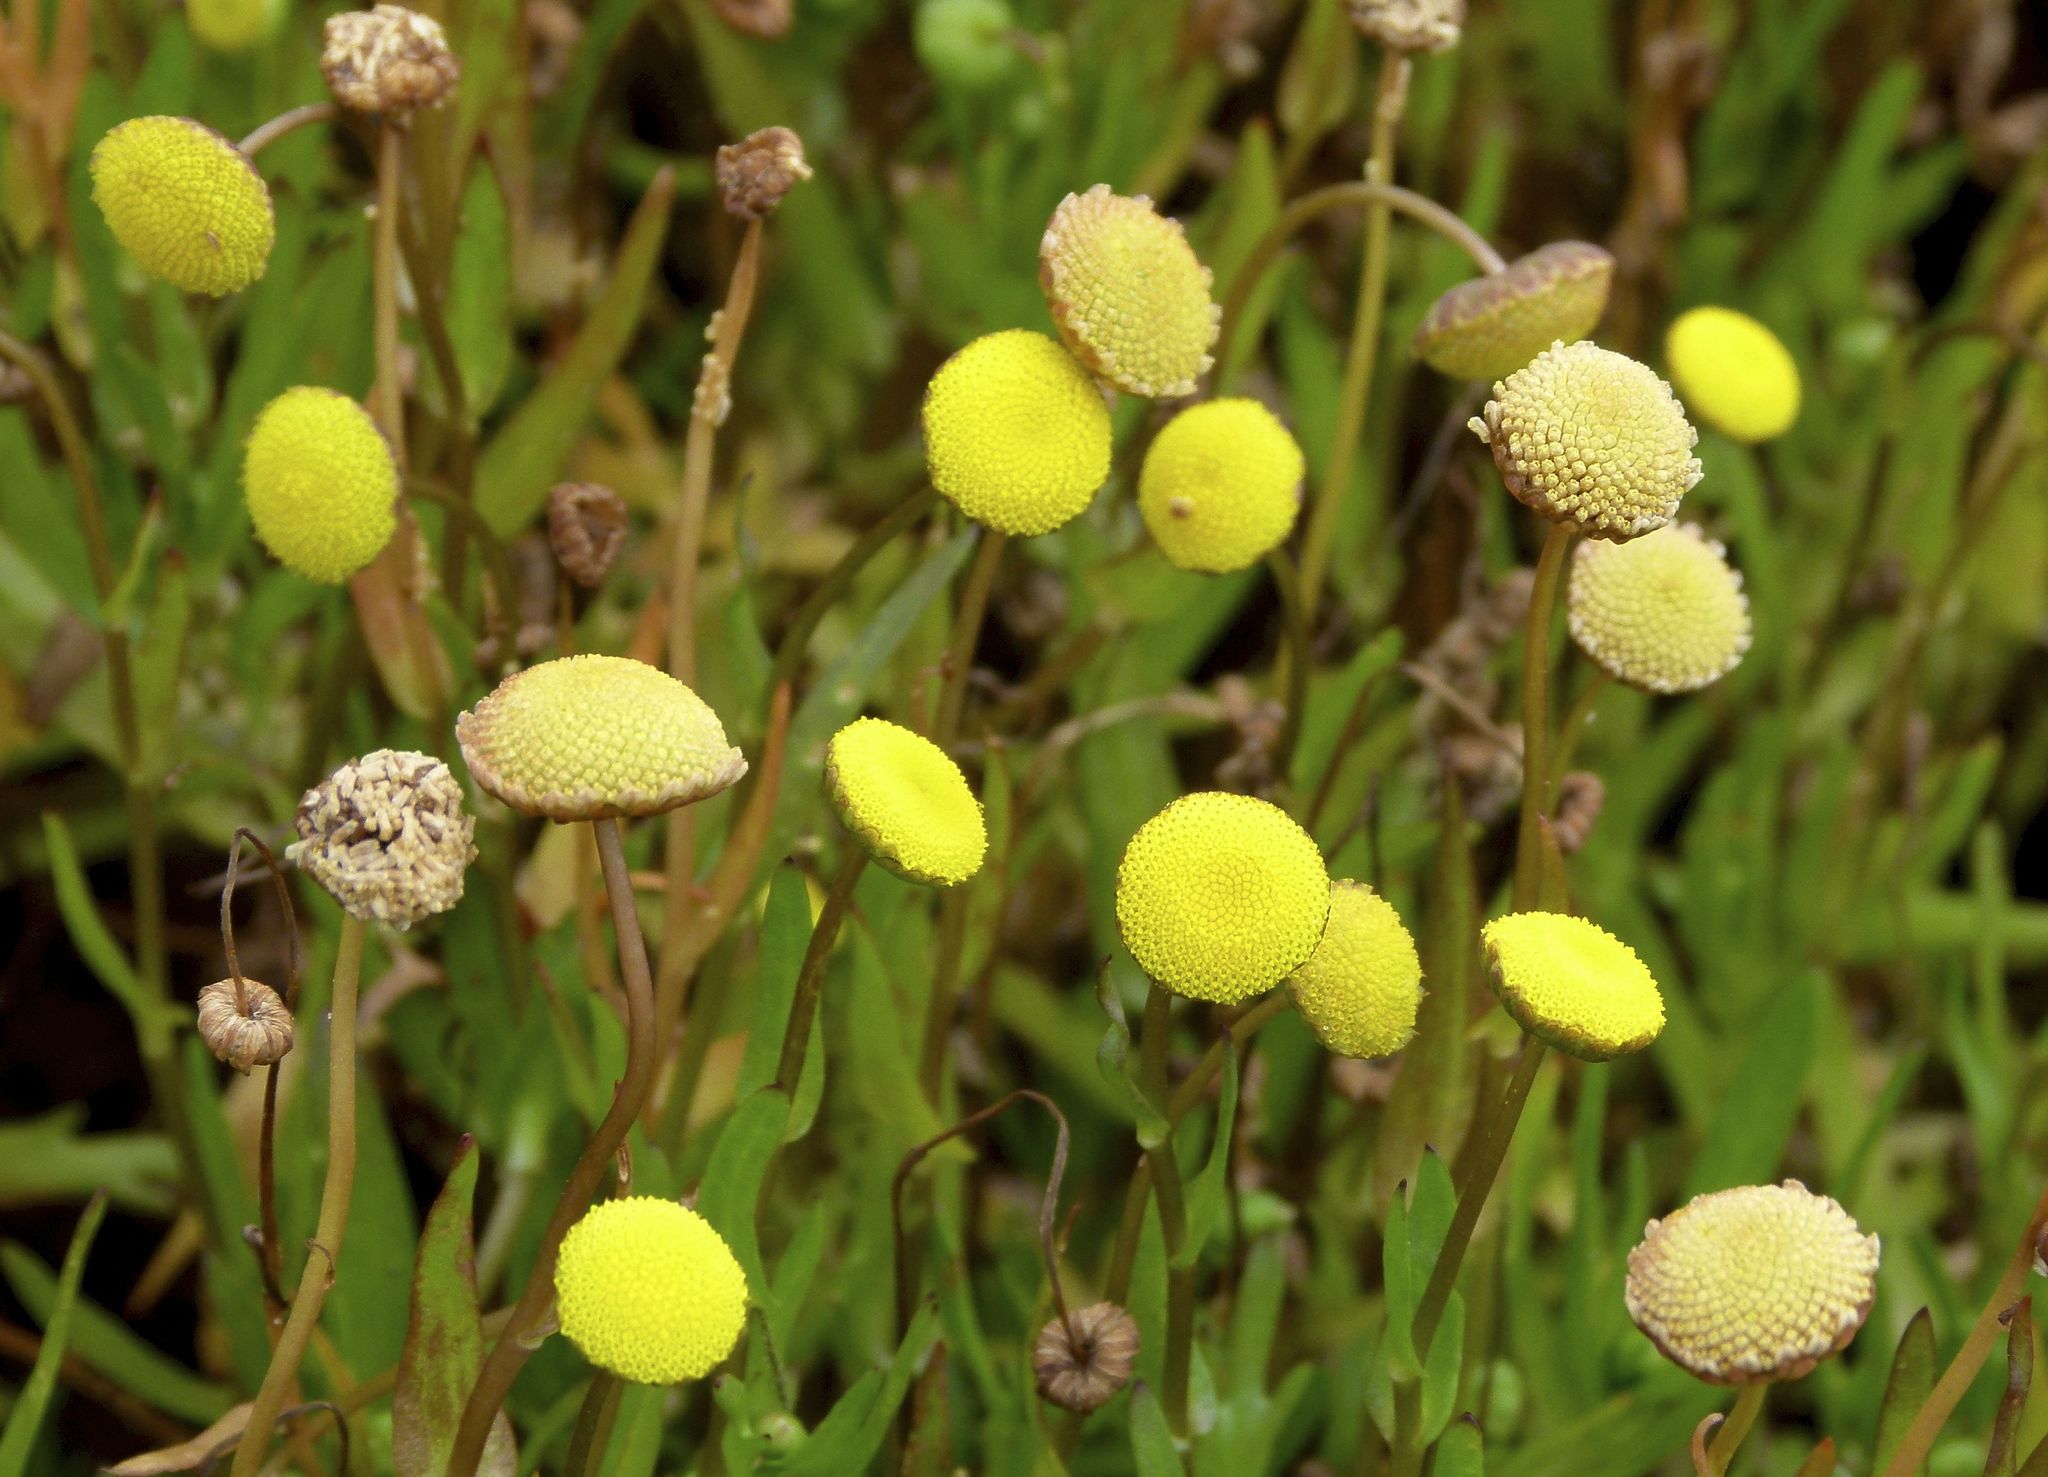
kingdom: Plantae
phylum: Tracheophyta
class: Magnoliopsida
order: Asterales
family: Asteraceae
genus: Cotula
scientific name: Cotula coronopifolia
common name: Buttonweed
